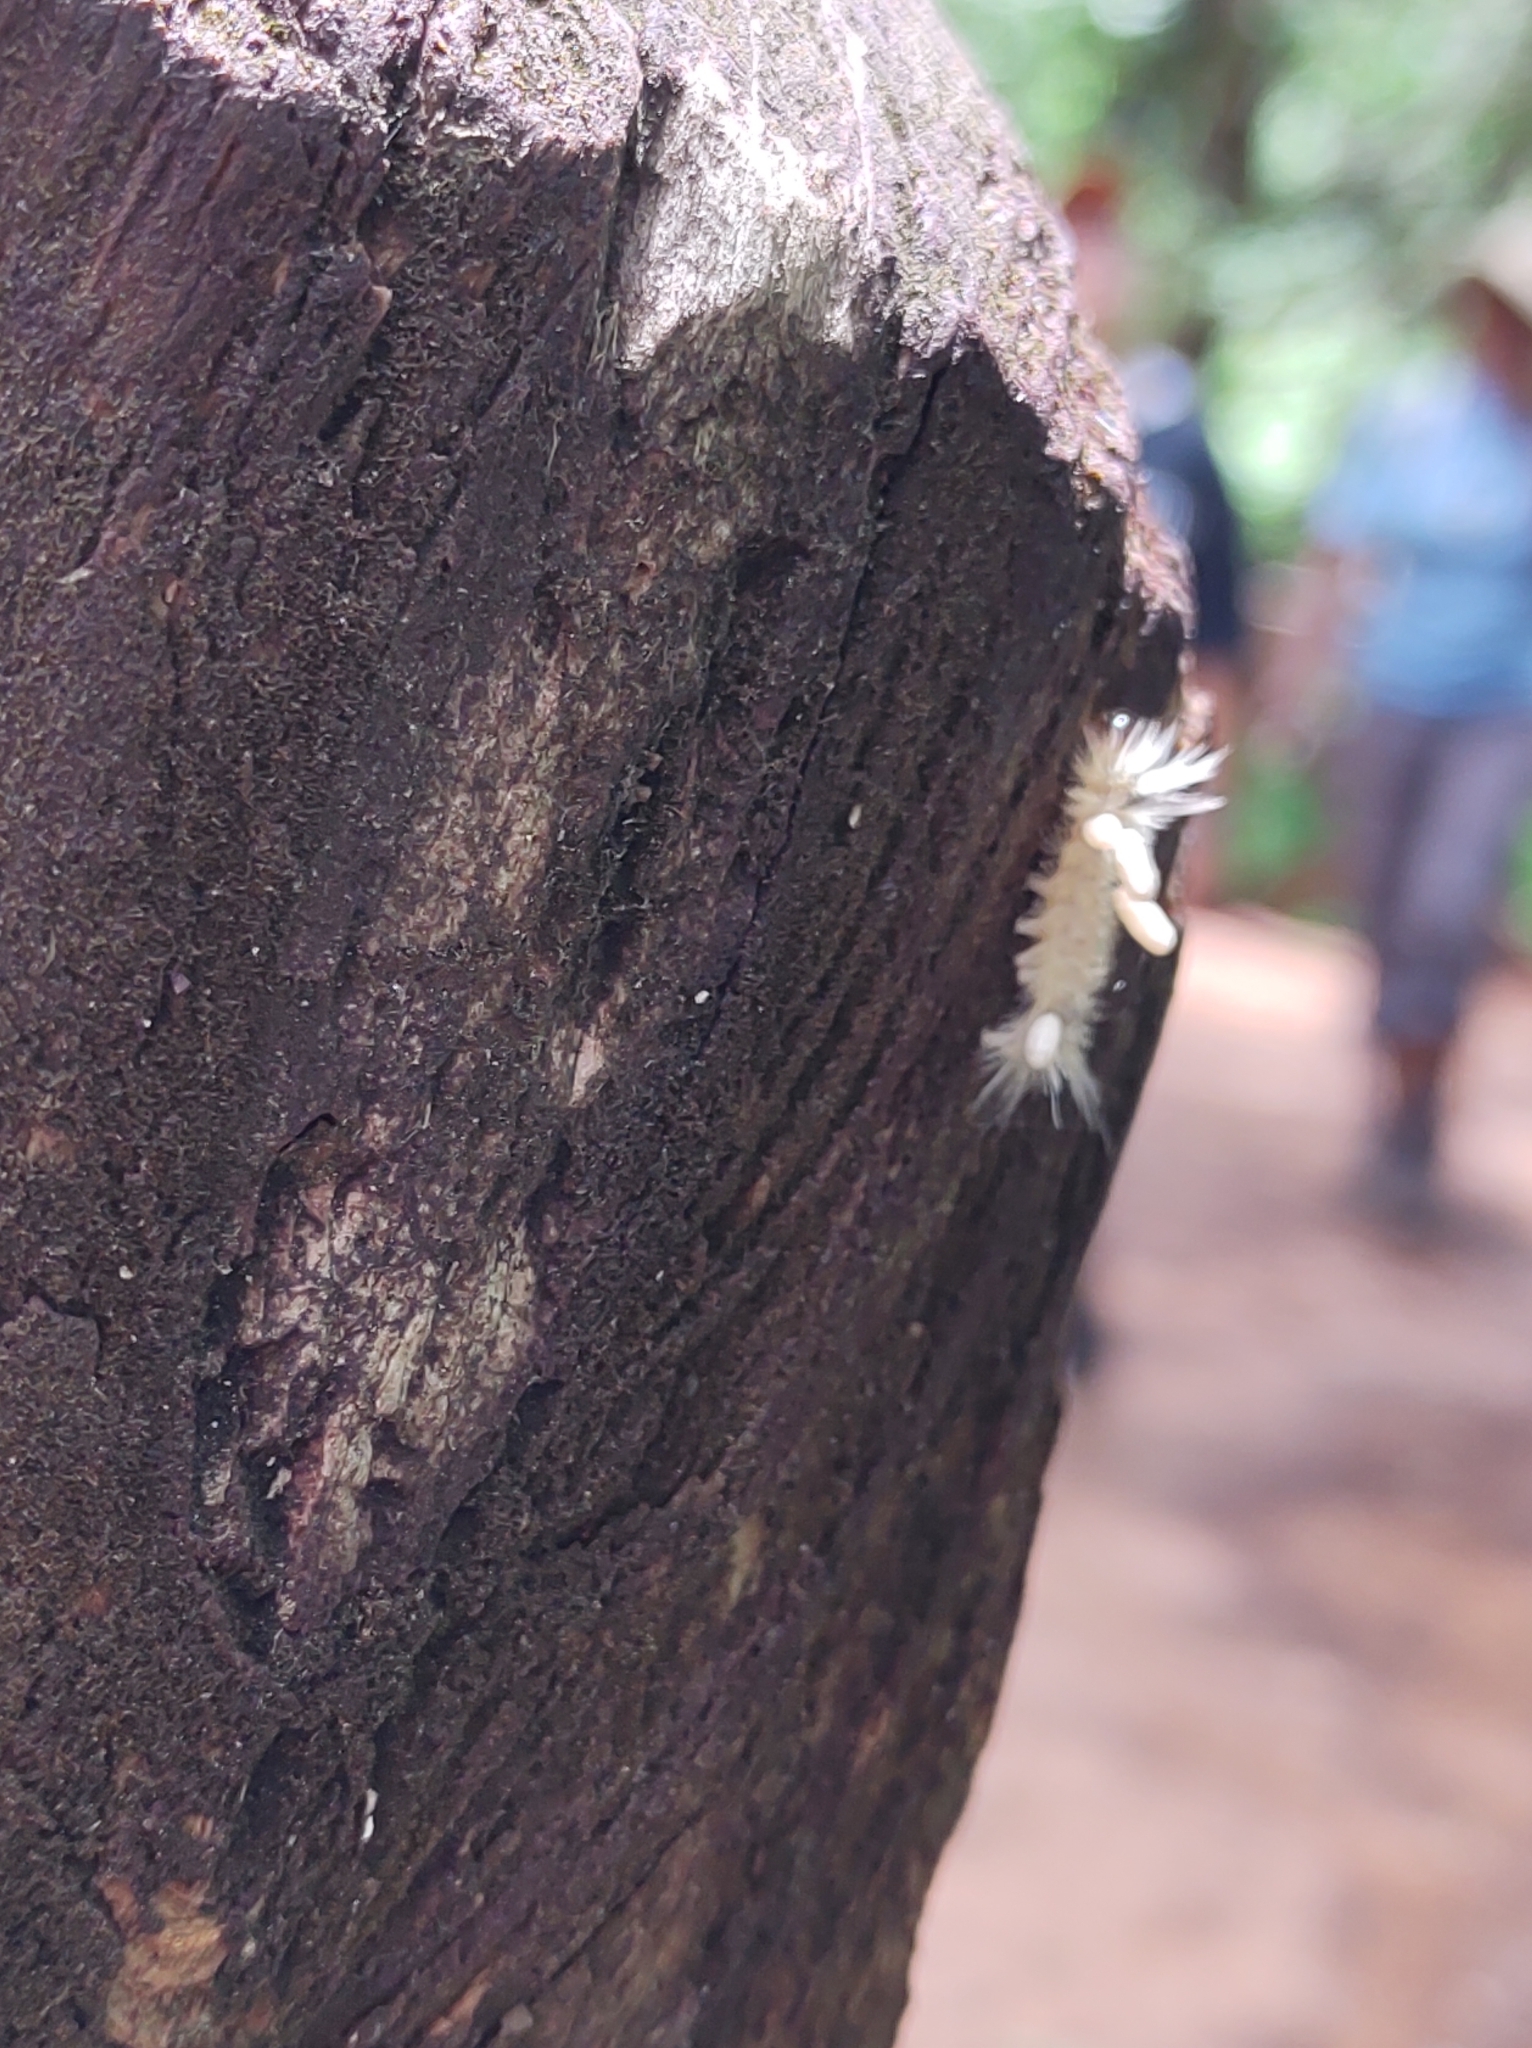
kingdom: Animalia
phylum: Arthropoda
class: Insecta
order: Lepidoptera
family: Erebidae
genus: Halysidota
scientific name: Halysidota tessellaris
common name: Banded tussock moth
